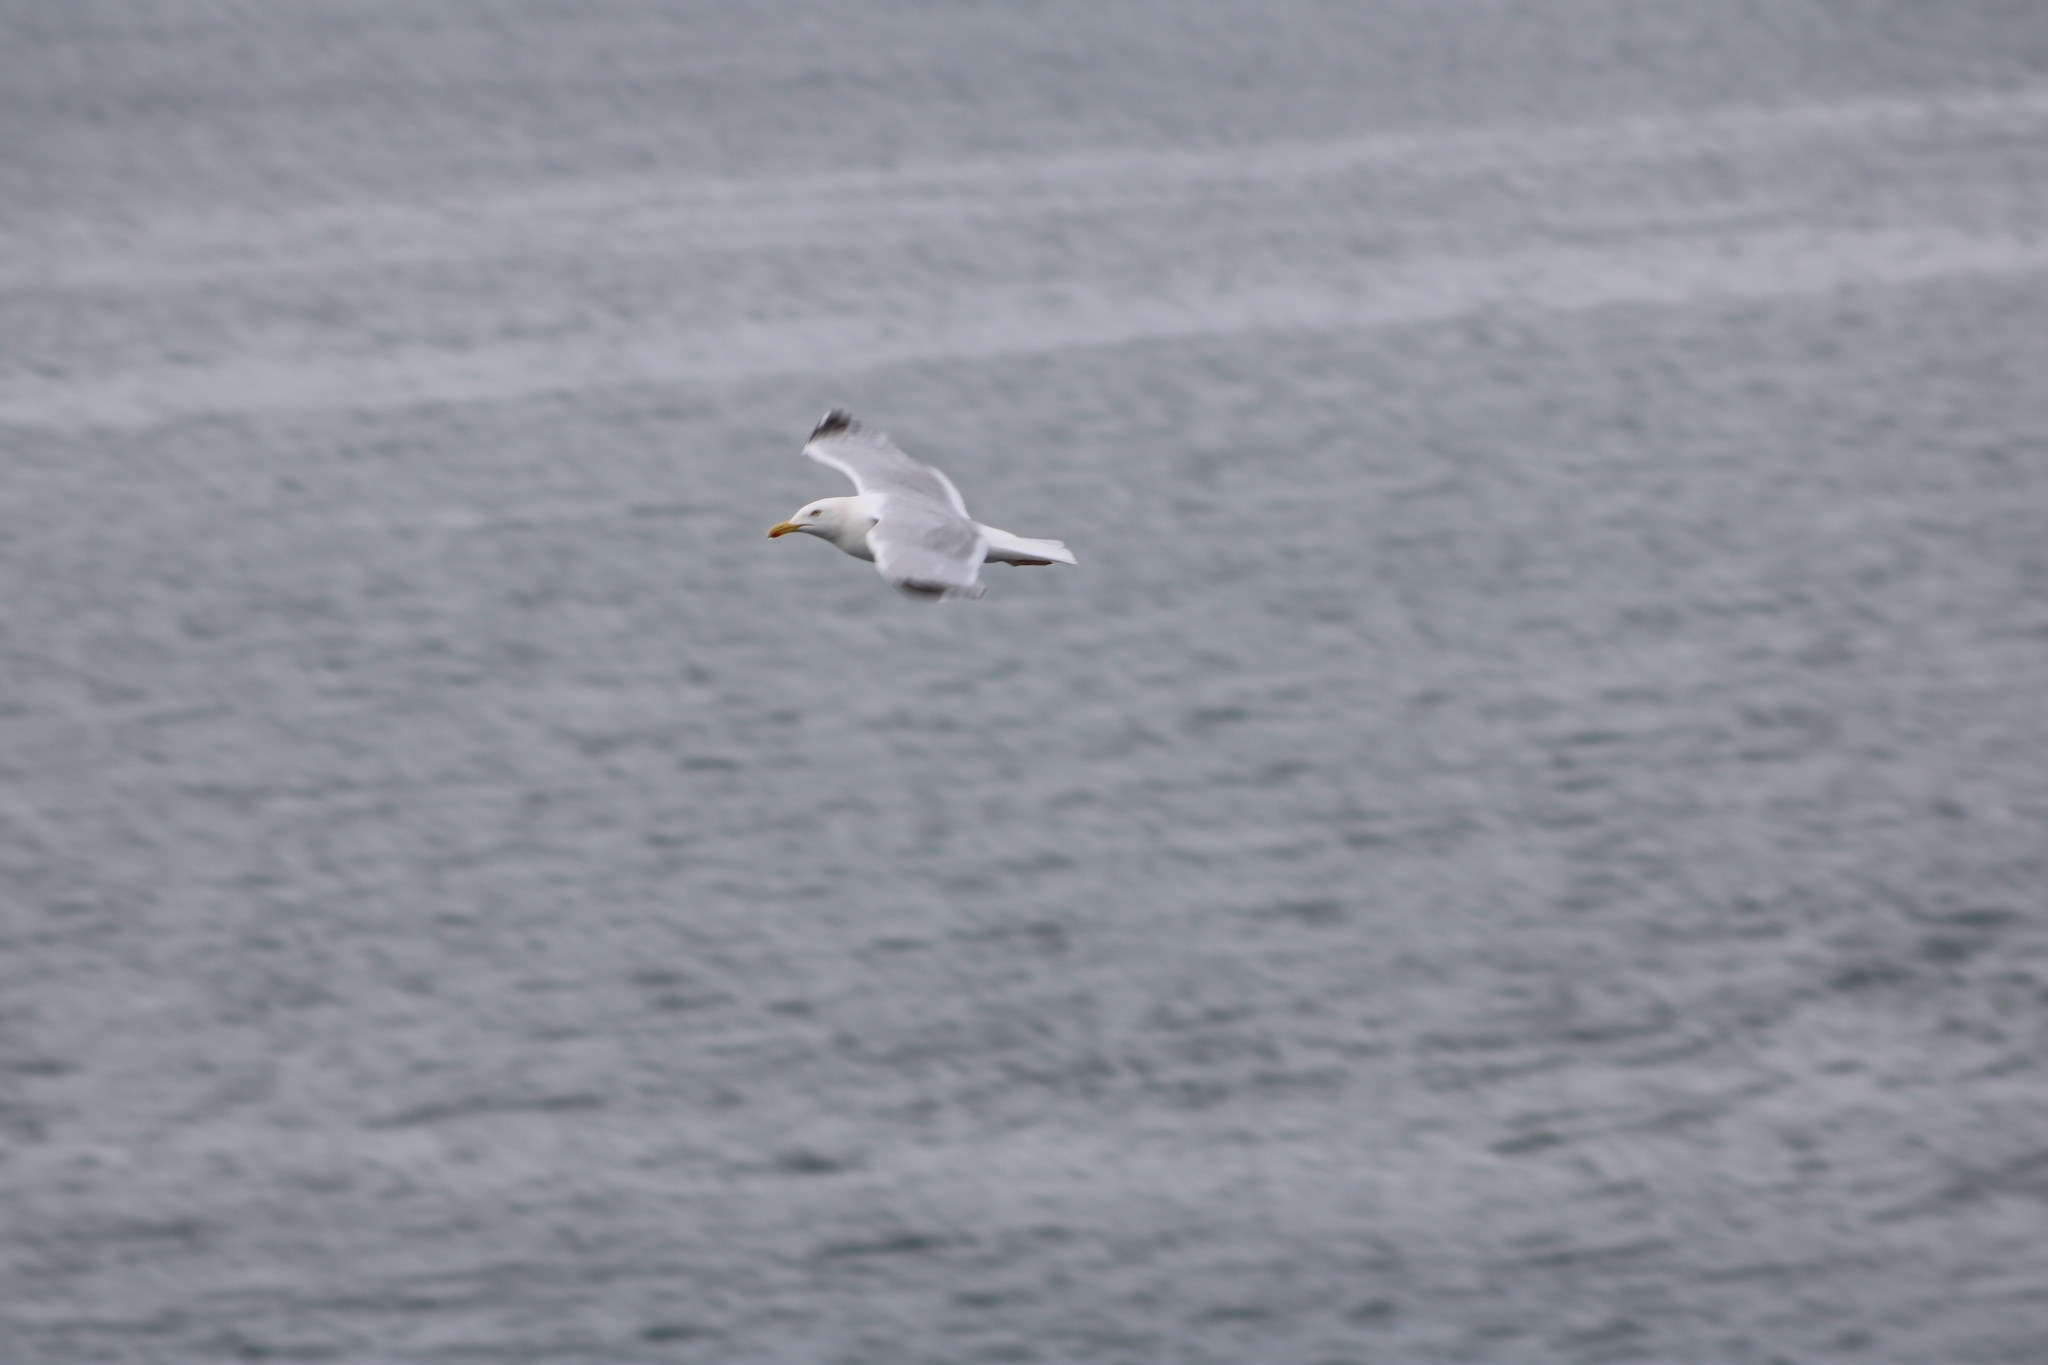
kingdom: Animalia
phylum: Chordata
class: Aves
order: Charadriiformes
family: Laridae
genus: Larus
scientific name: Larus argentatus
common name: Herring gull
